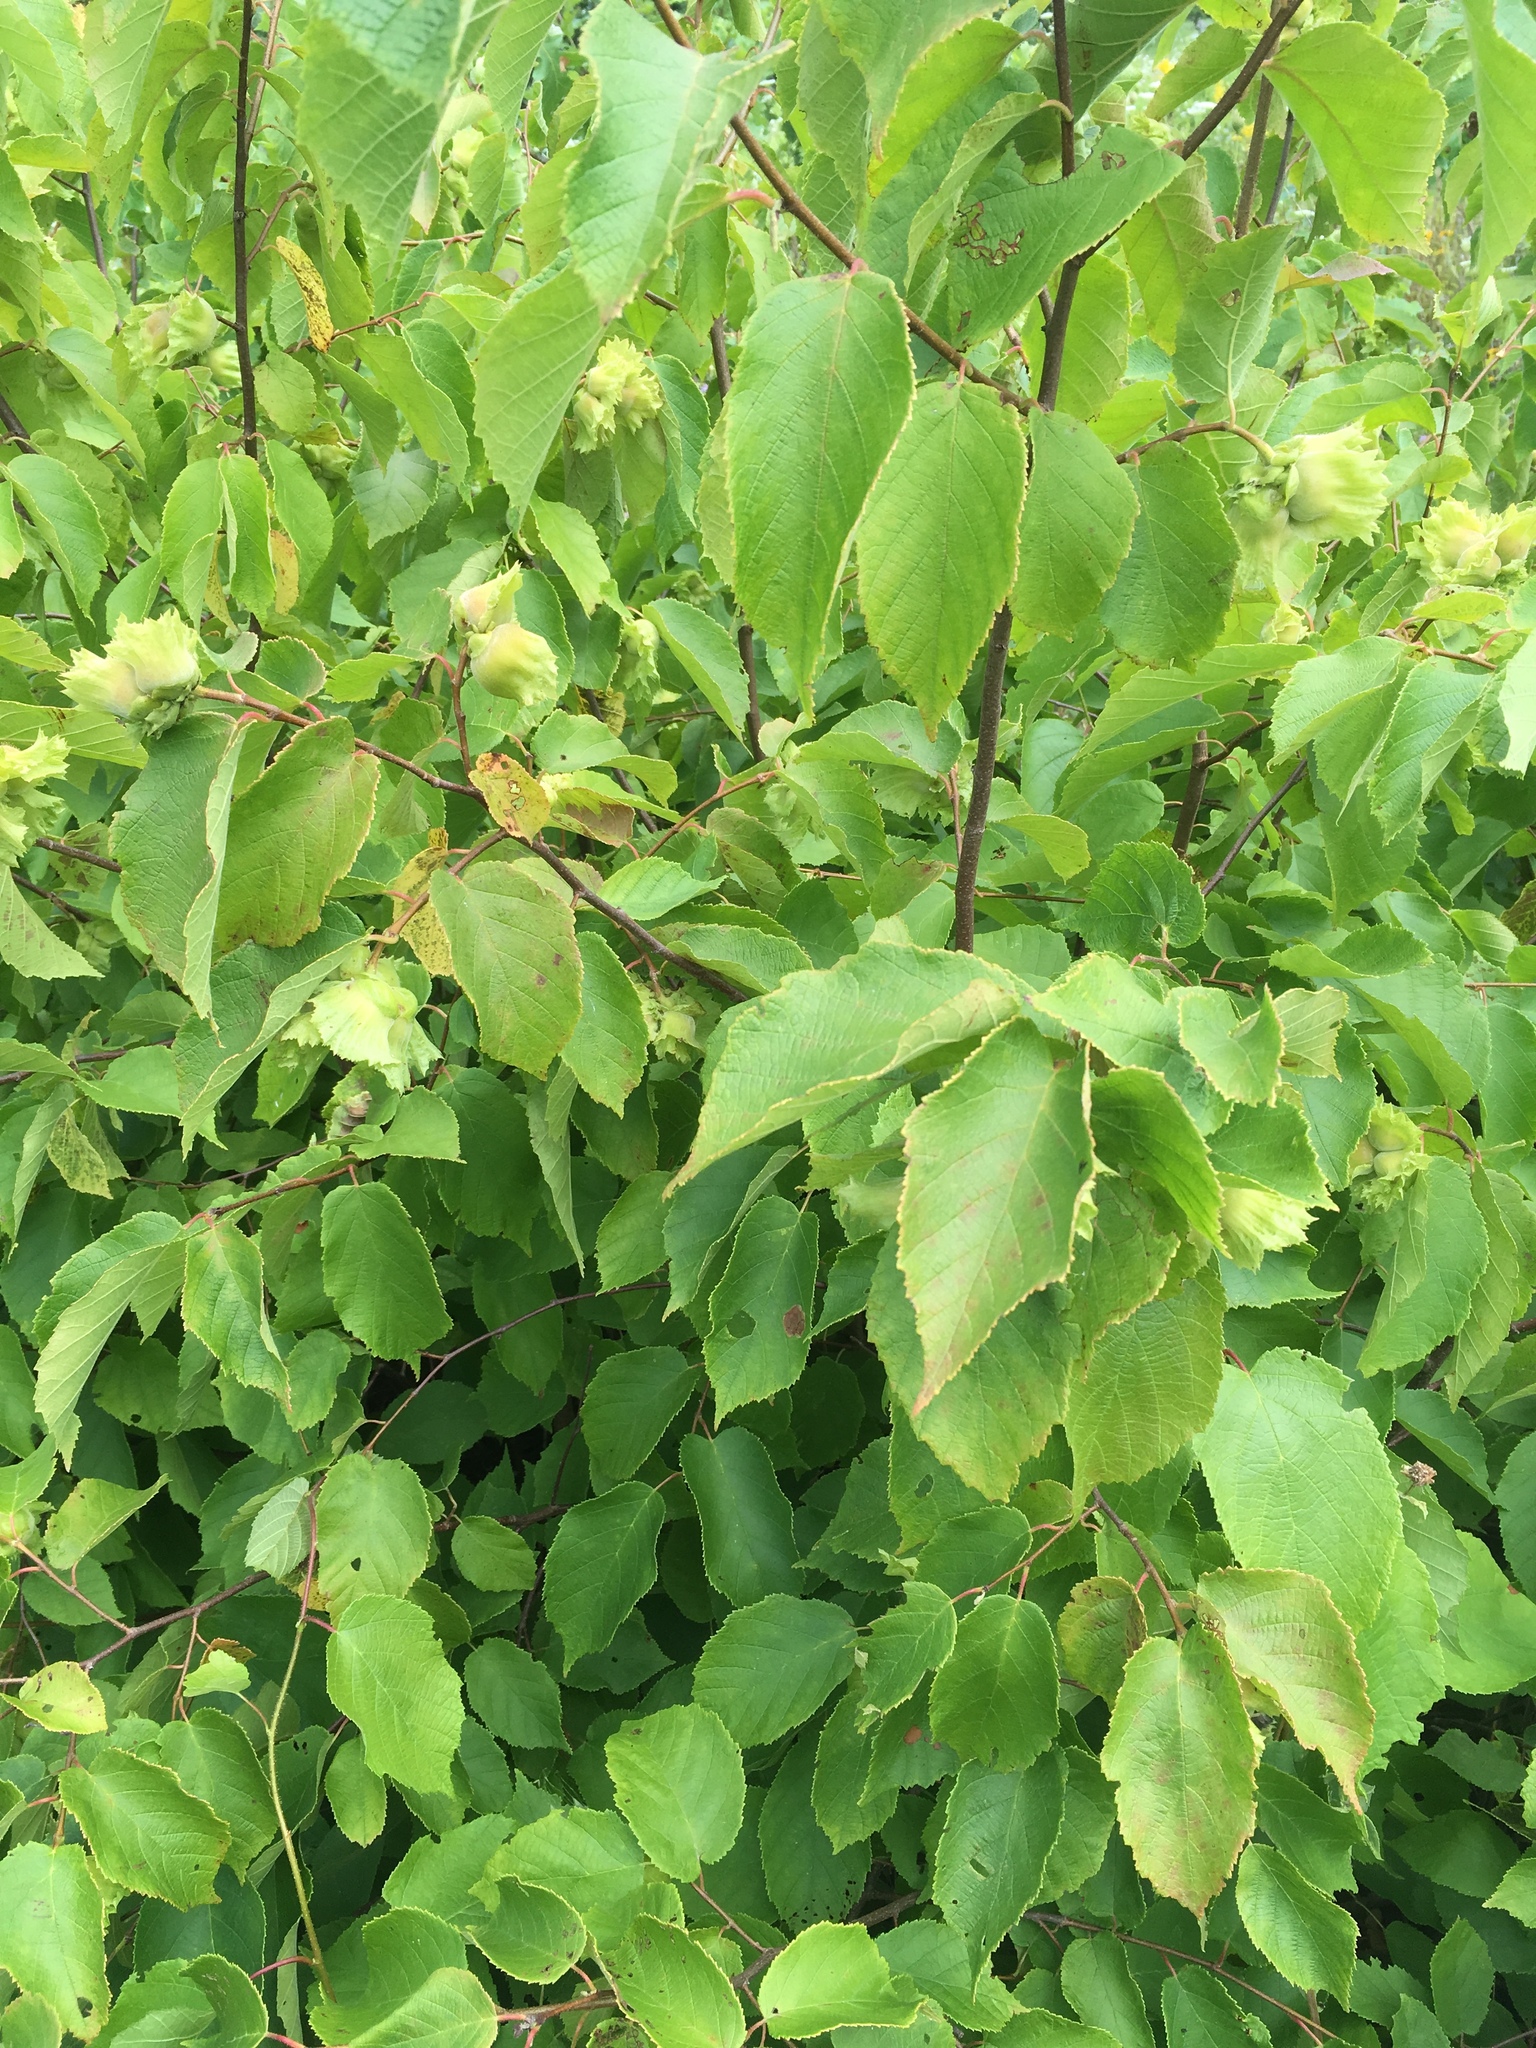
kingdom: Plantae
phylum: Tracheophyta
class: Magnoliopsida
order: Fagales
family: Betulaceae
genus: Corylus
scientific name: Corylus americana
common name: American hazel
